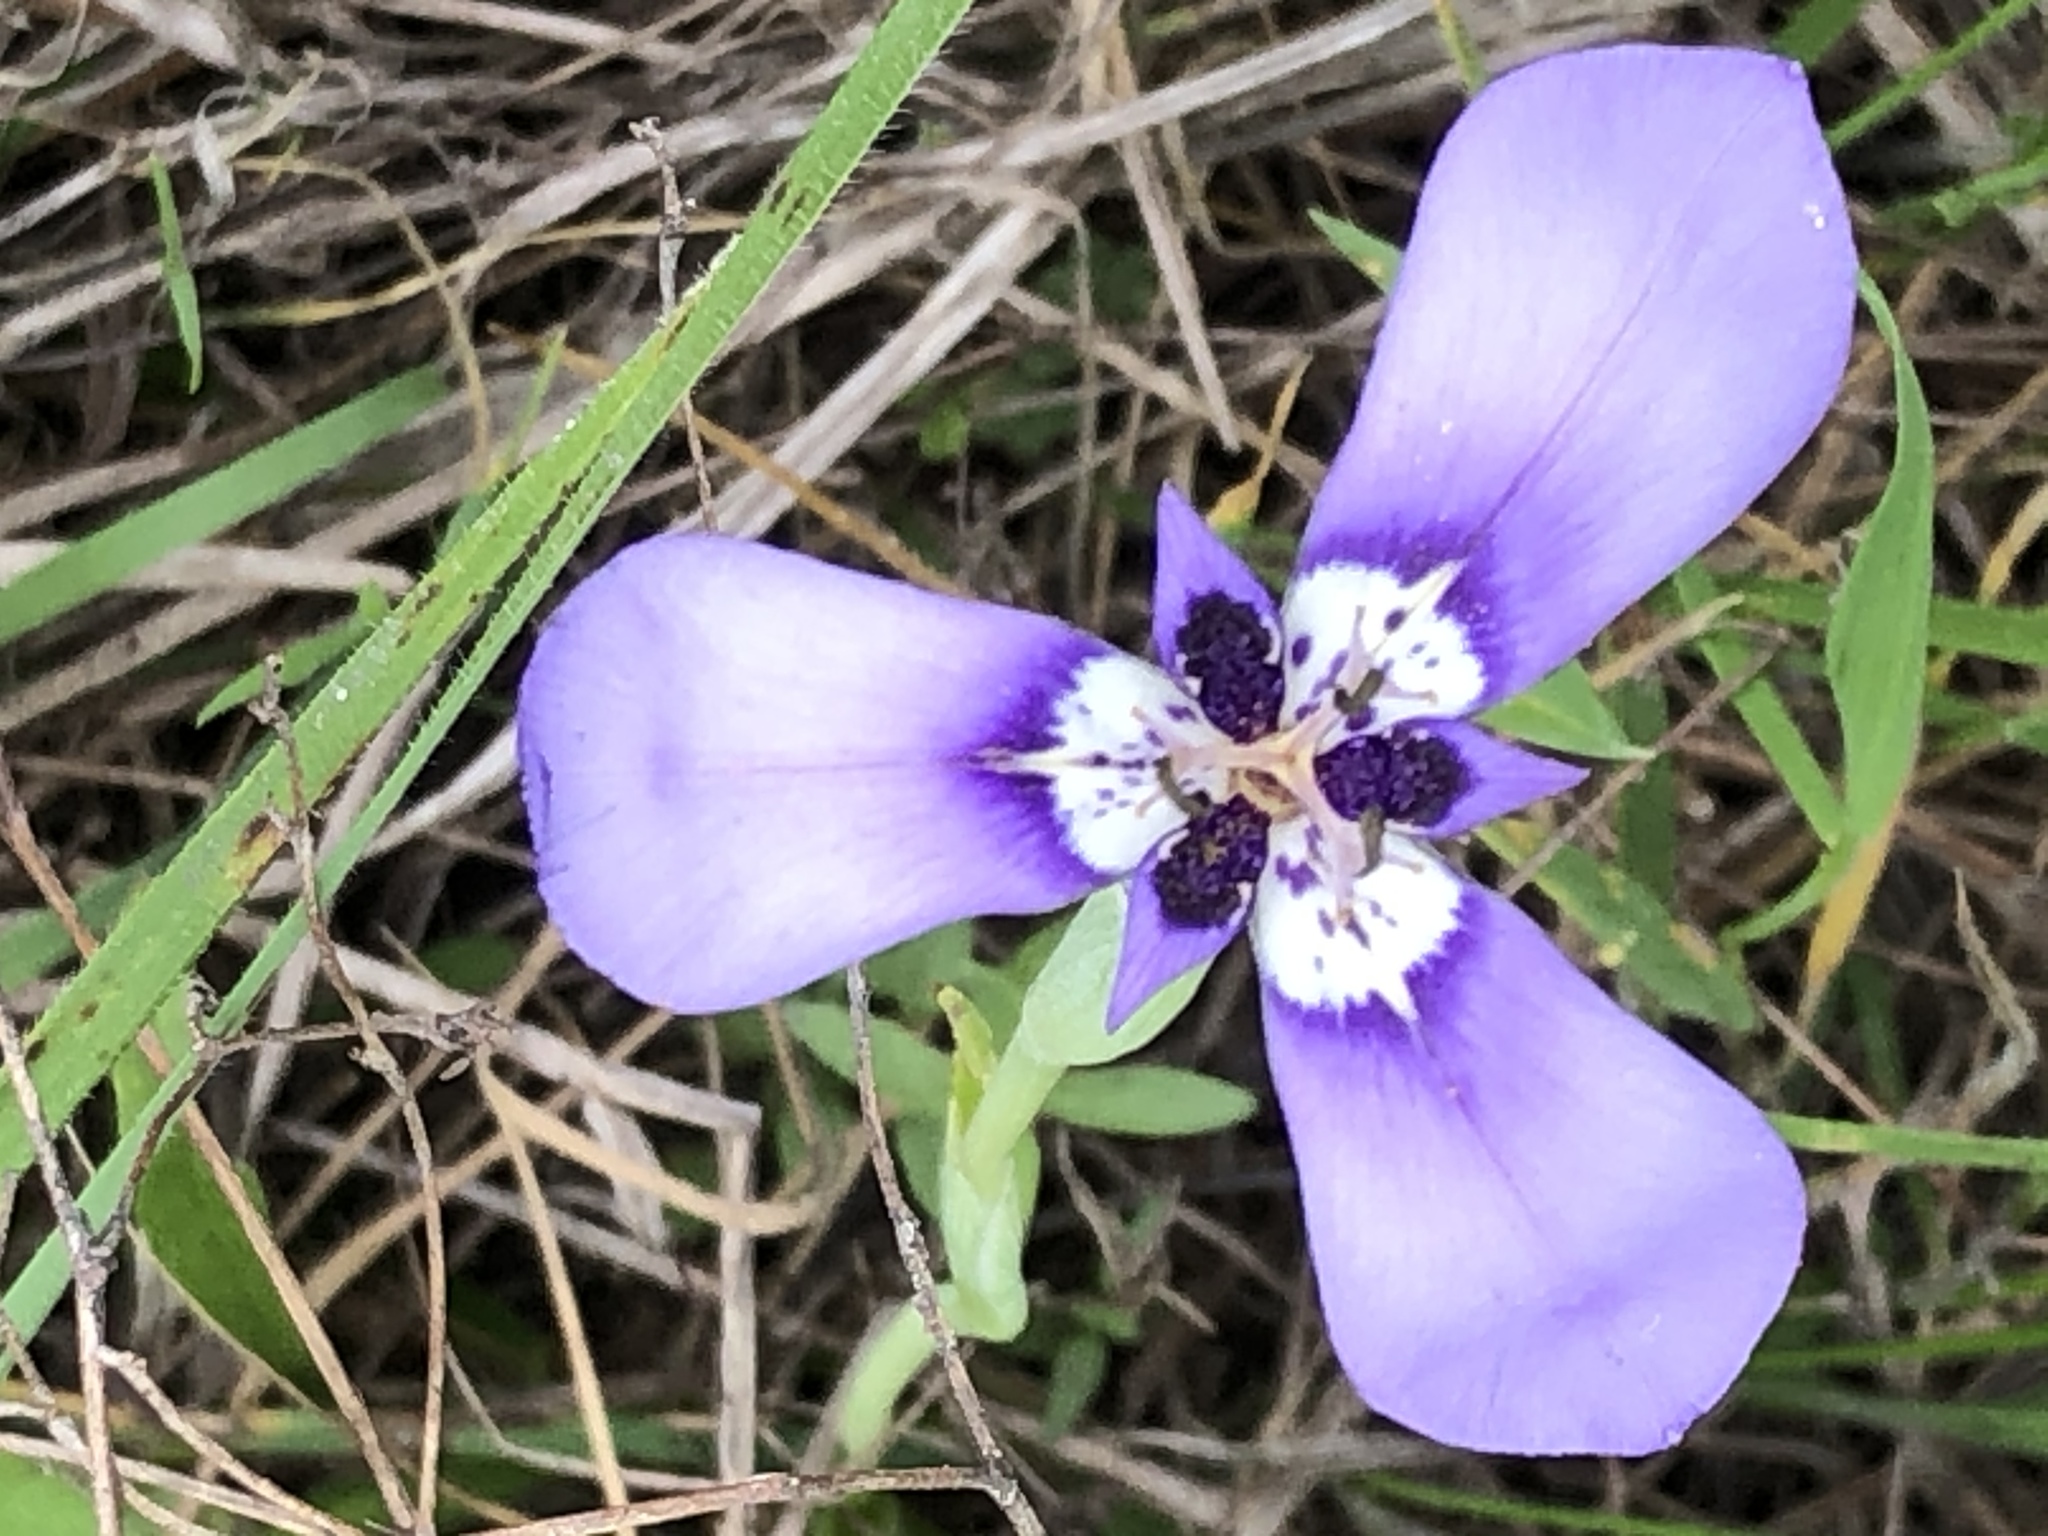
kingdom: Plantae
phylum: Tracheophyta
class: Liliopsida
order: Asparagales
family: Iridaceae
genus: Herbertia
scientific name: Herbertia lahue
